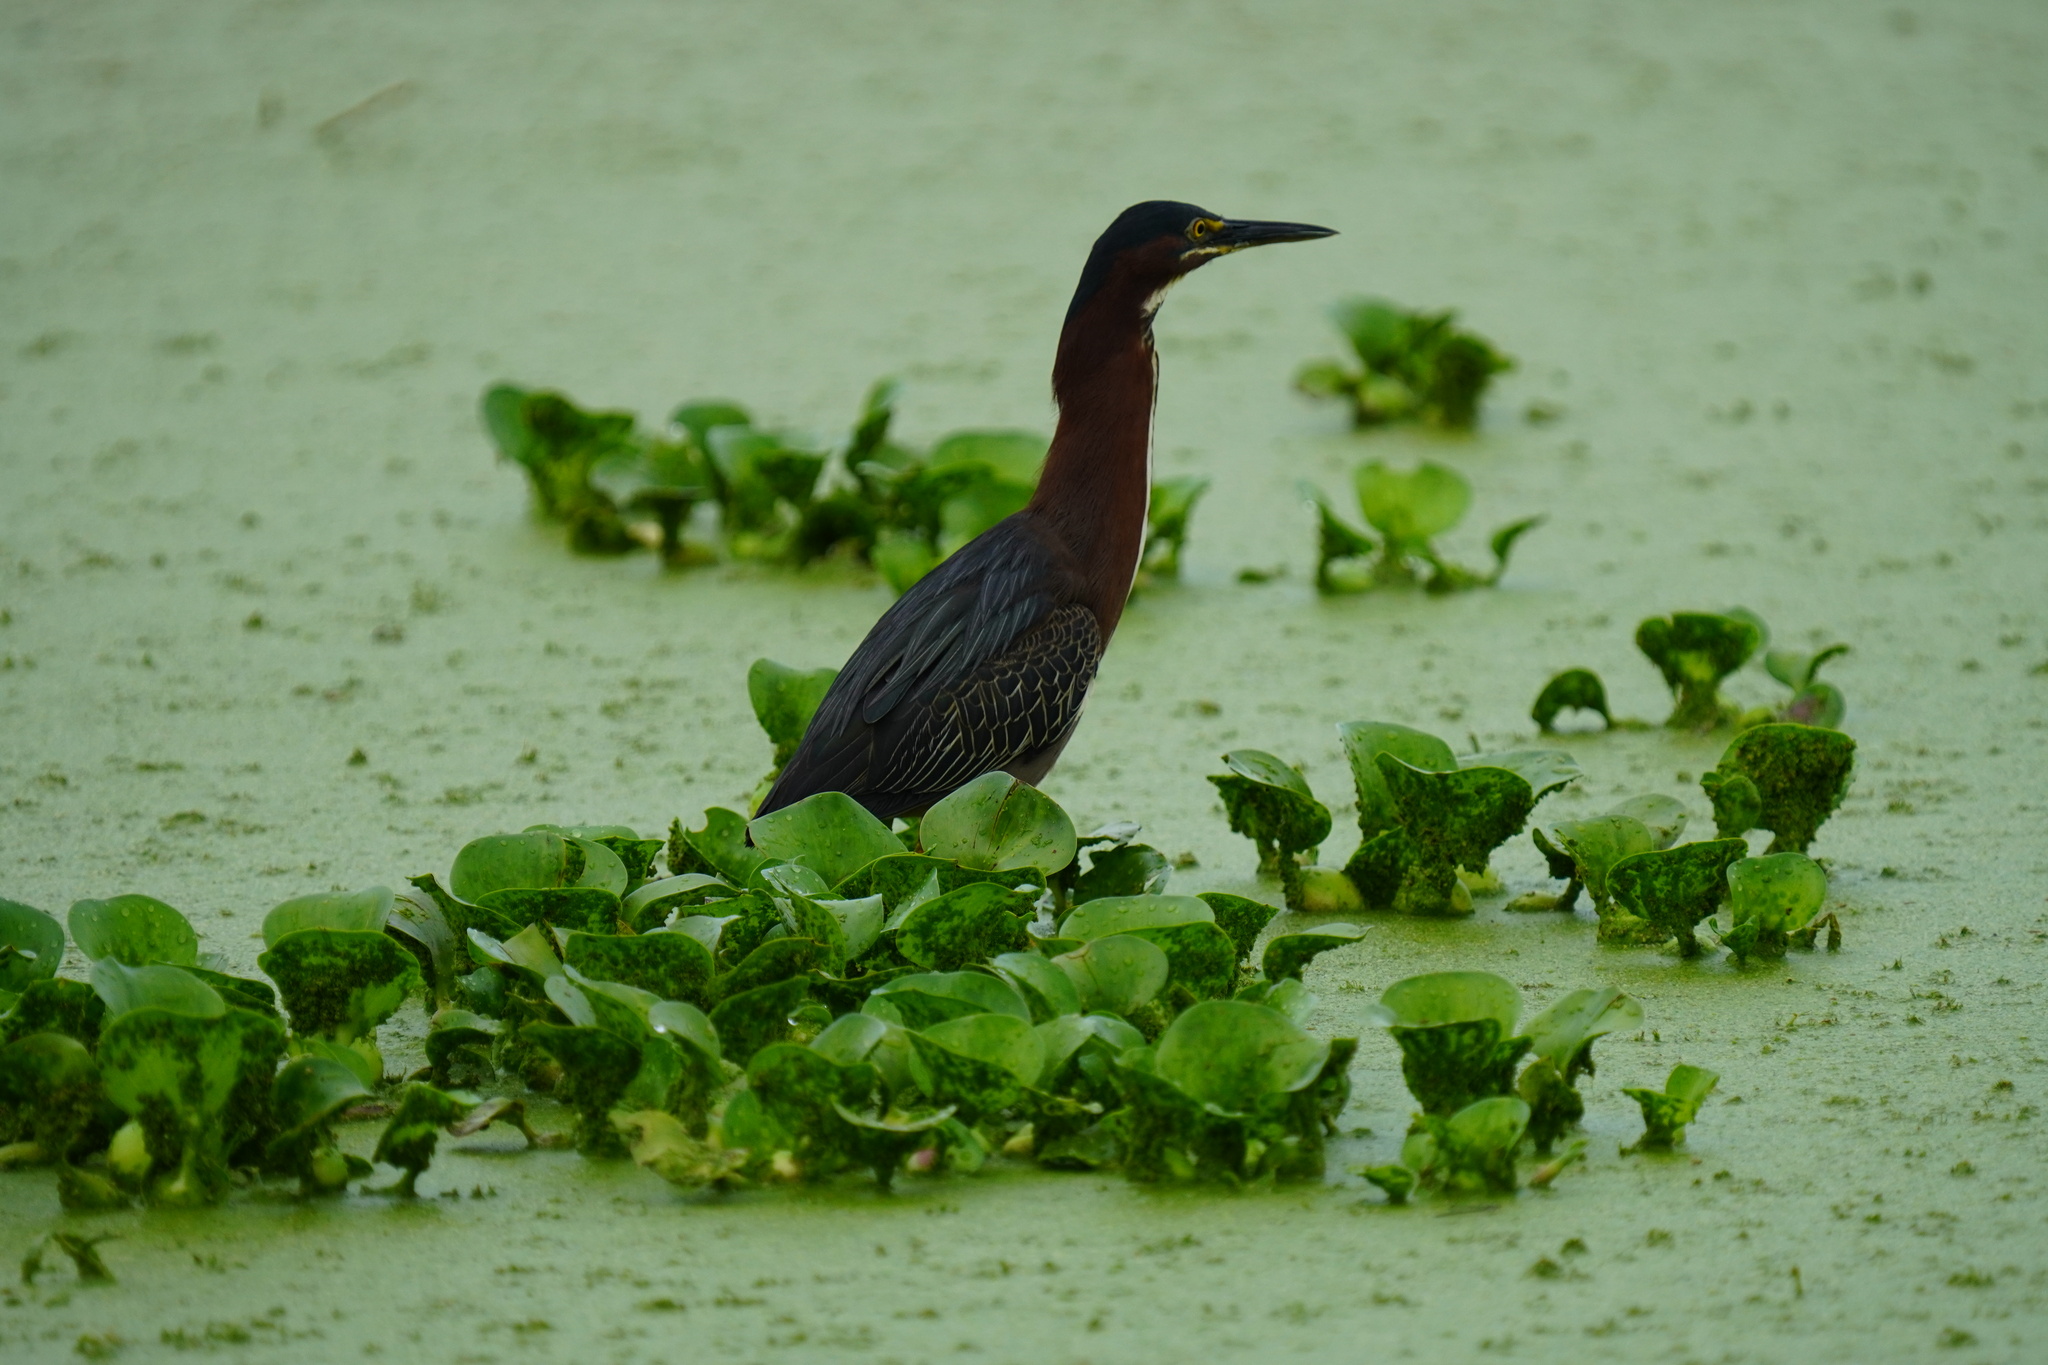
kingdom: Animalia
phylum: Chordata
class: Aves
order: Pelecaniformes
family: Ardeidae
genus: Butorides
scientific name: Butorides virescens
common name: Green heron
